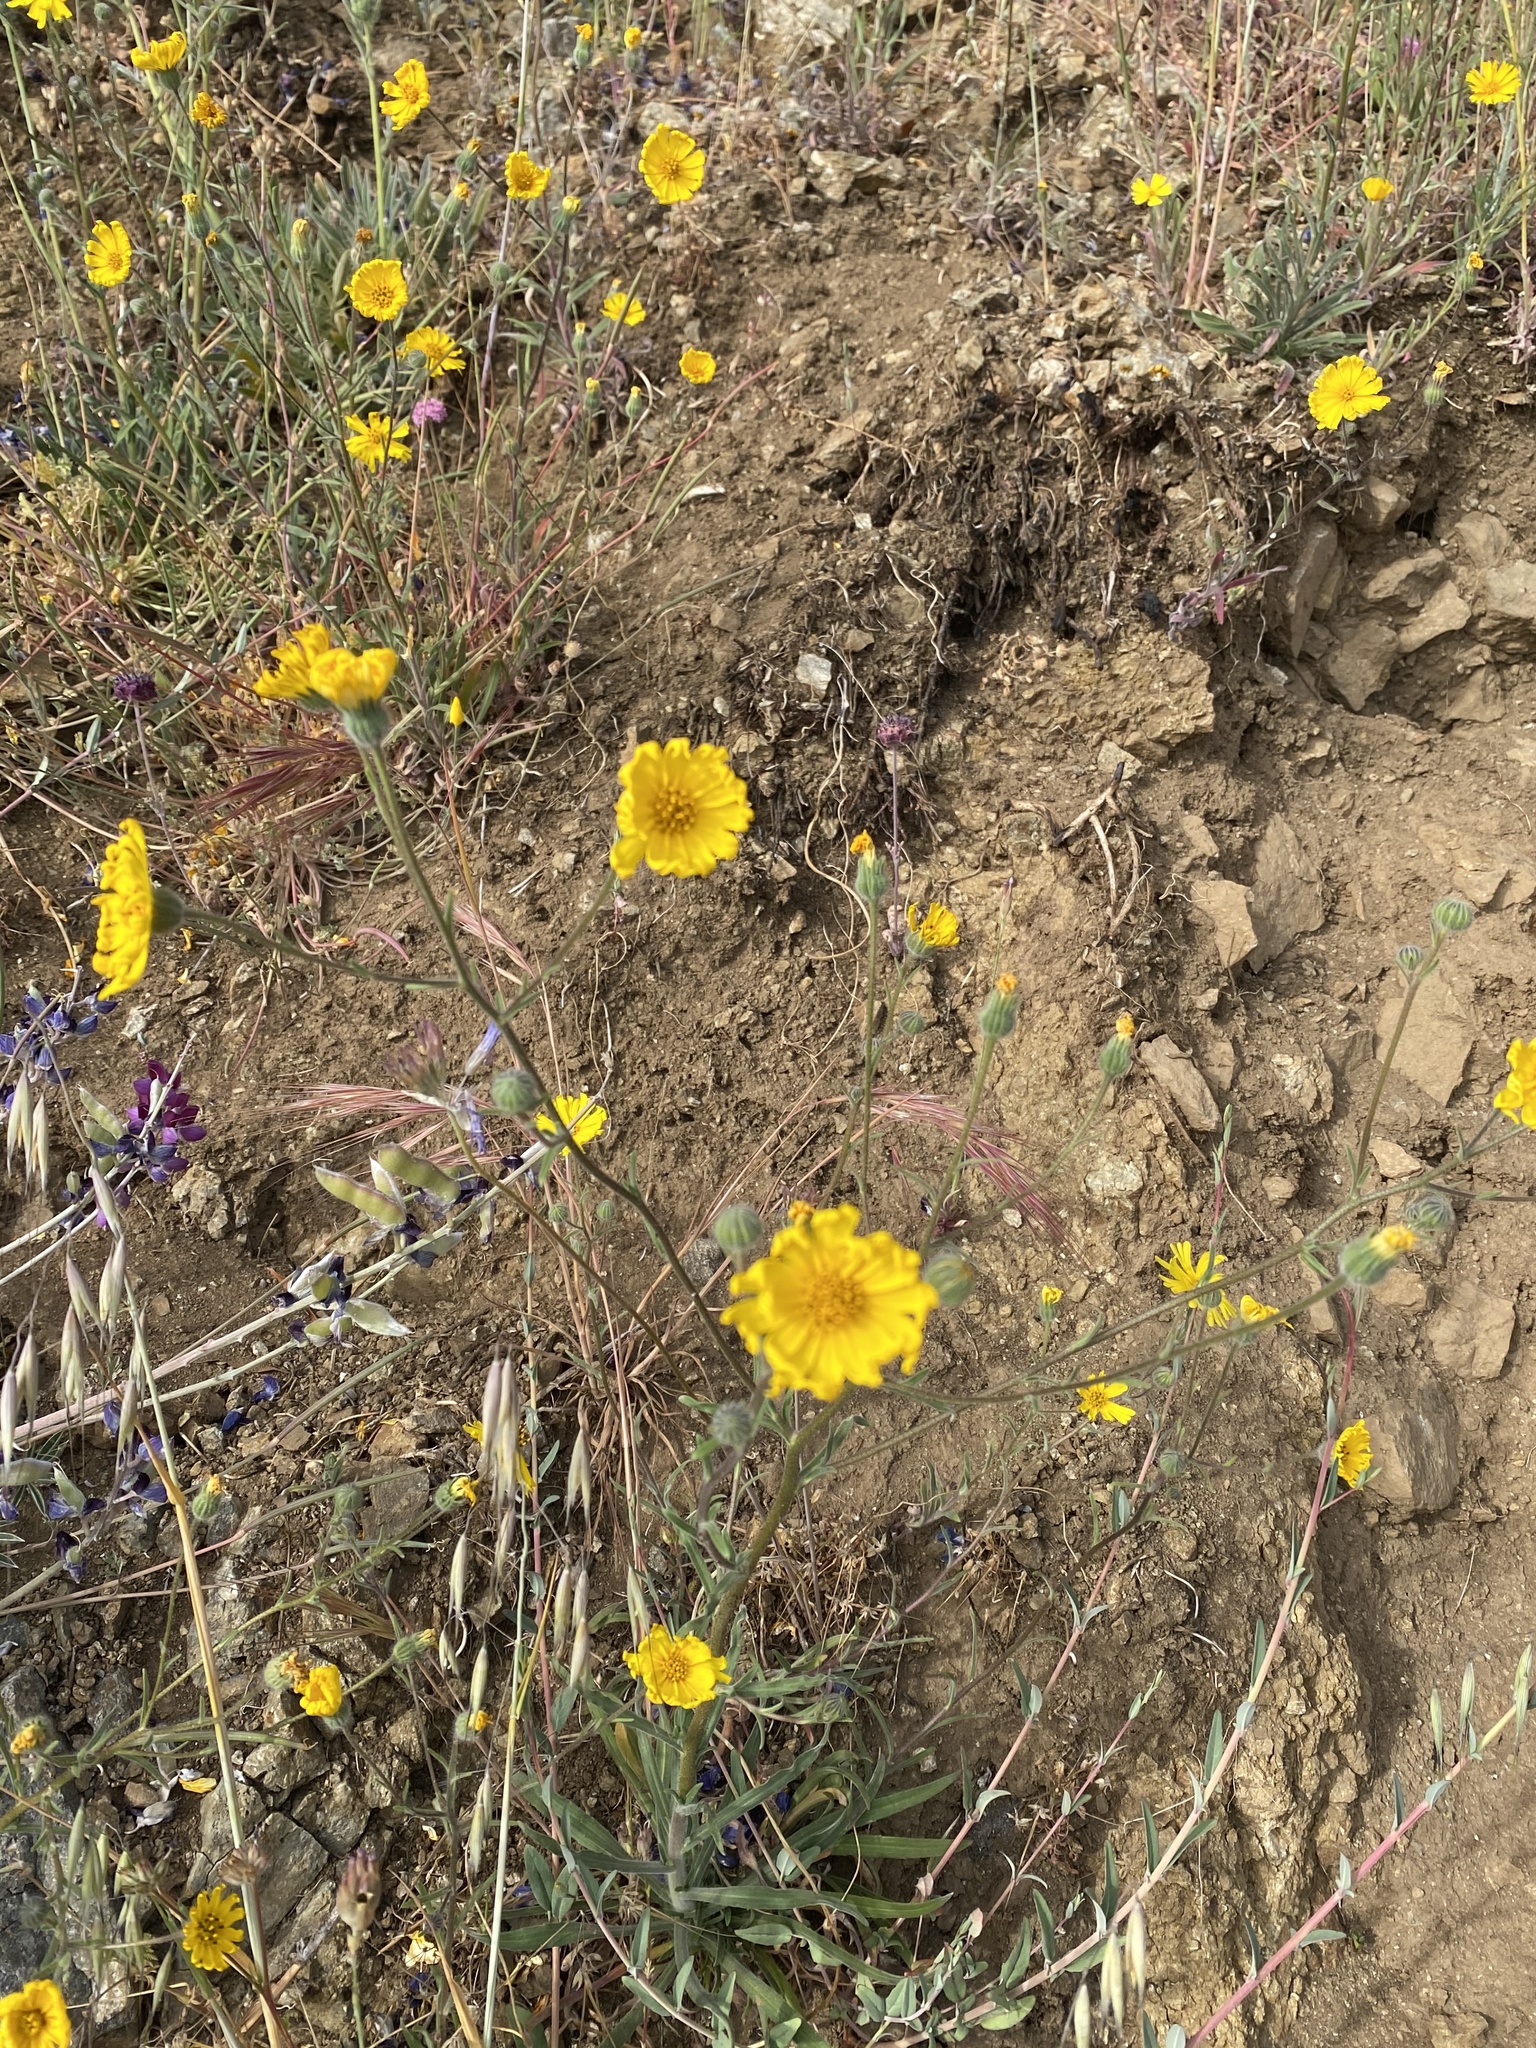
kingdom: Plantae
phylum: Tracheophyta
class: Magnoliopsida
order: Asterales
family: Asteraceae
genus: Madia
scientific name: Madia elegans
